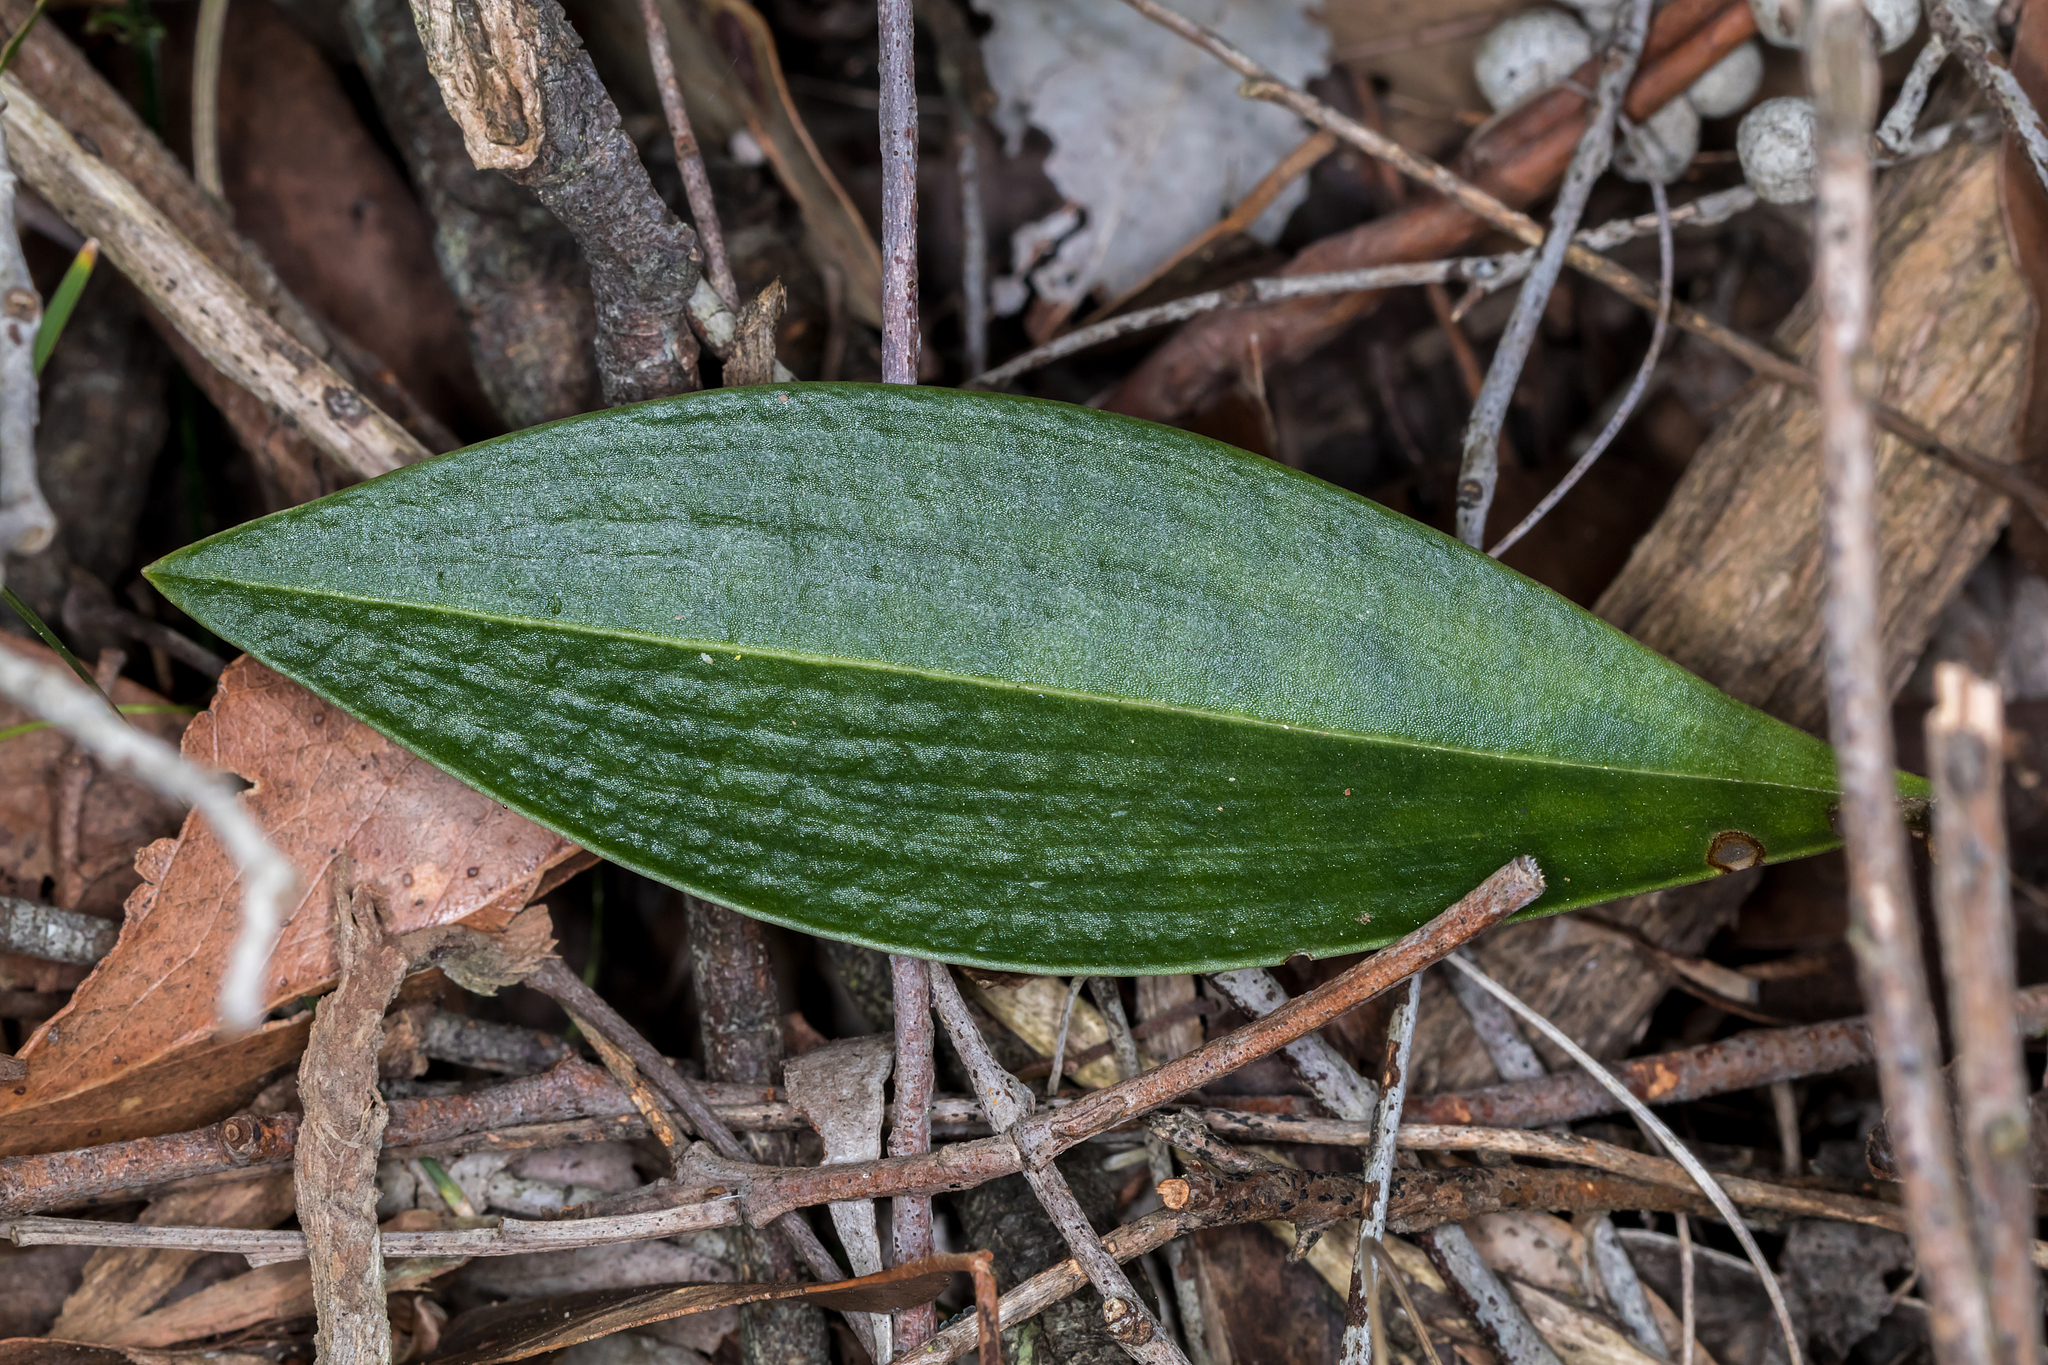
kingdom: Plantae
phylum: Tracheophyta
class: Liliopsida
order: Asparagales
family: Orchidaceae
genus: Cryptostylis
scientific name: Cryptostylis subulata
